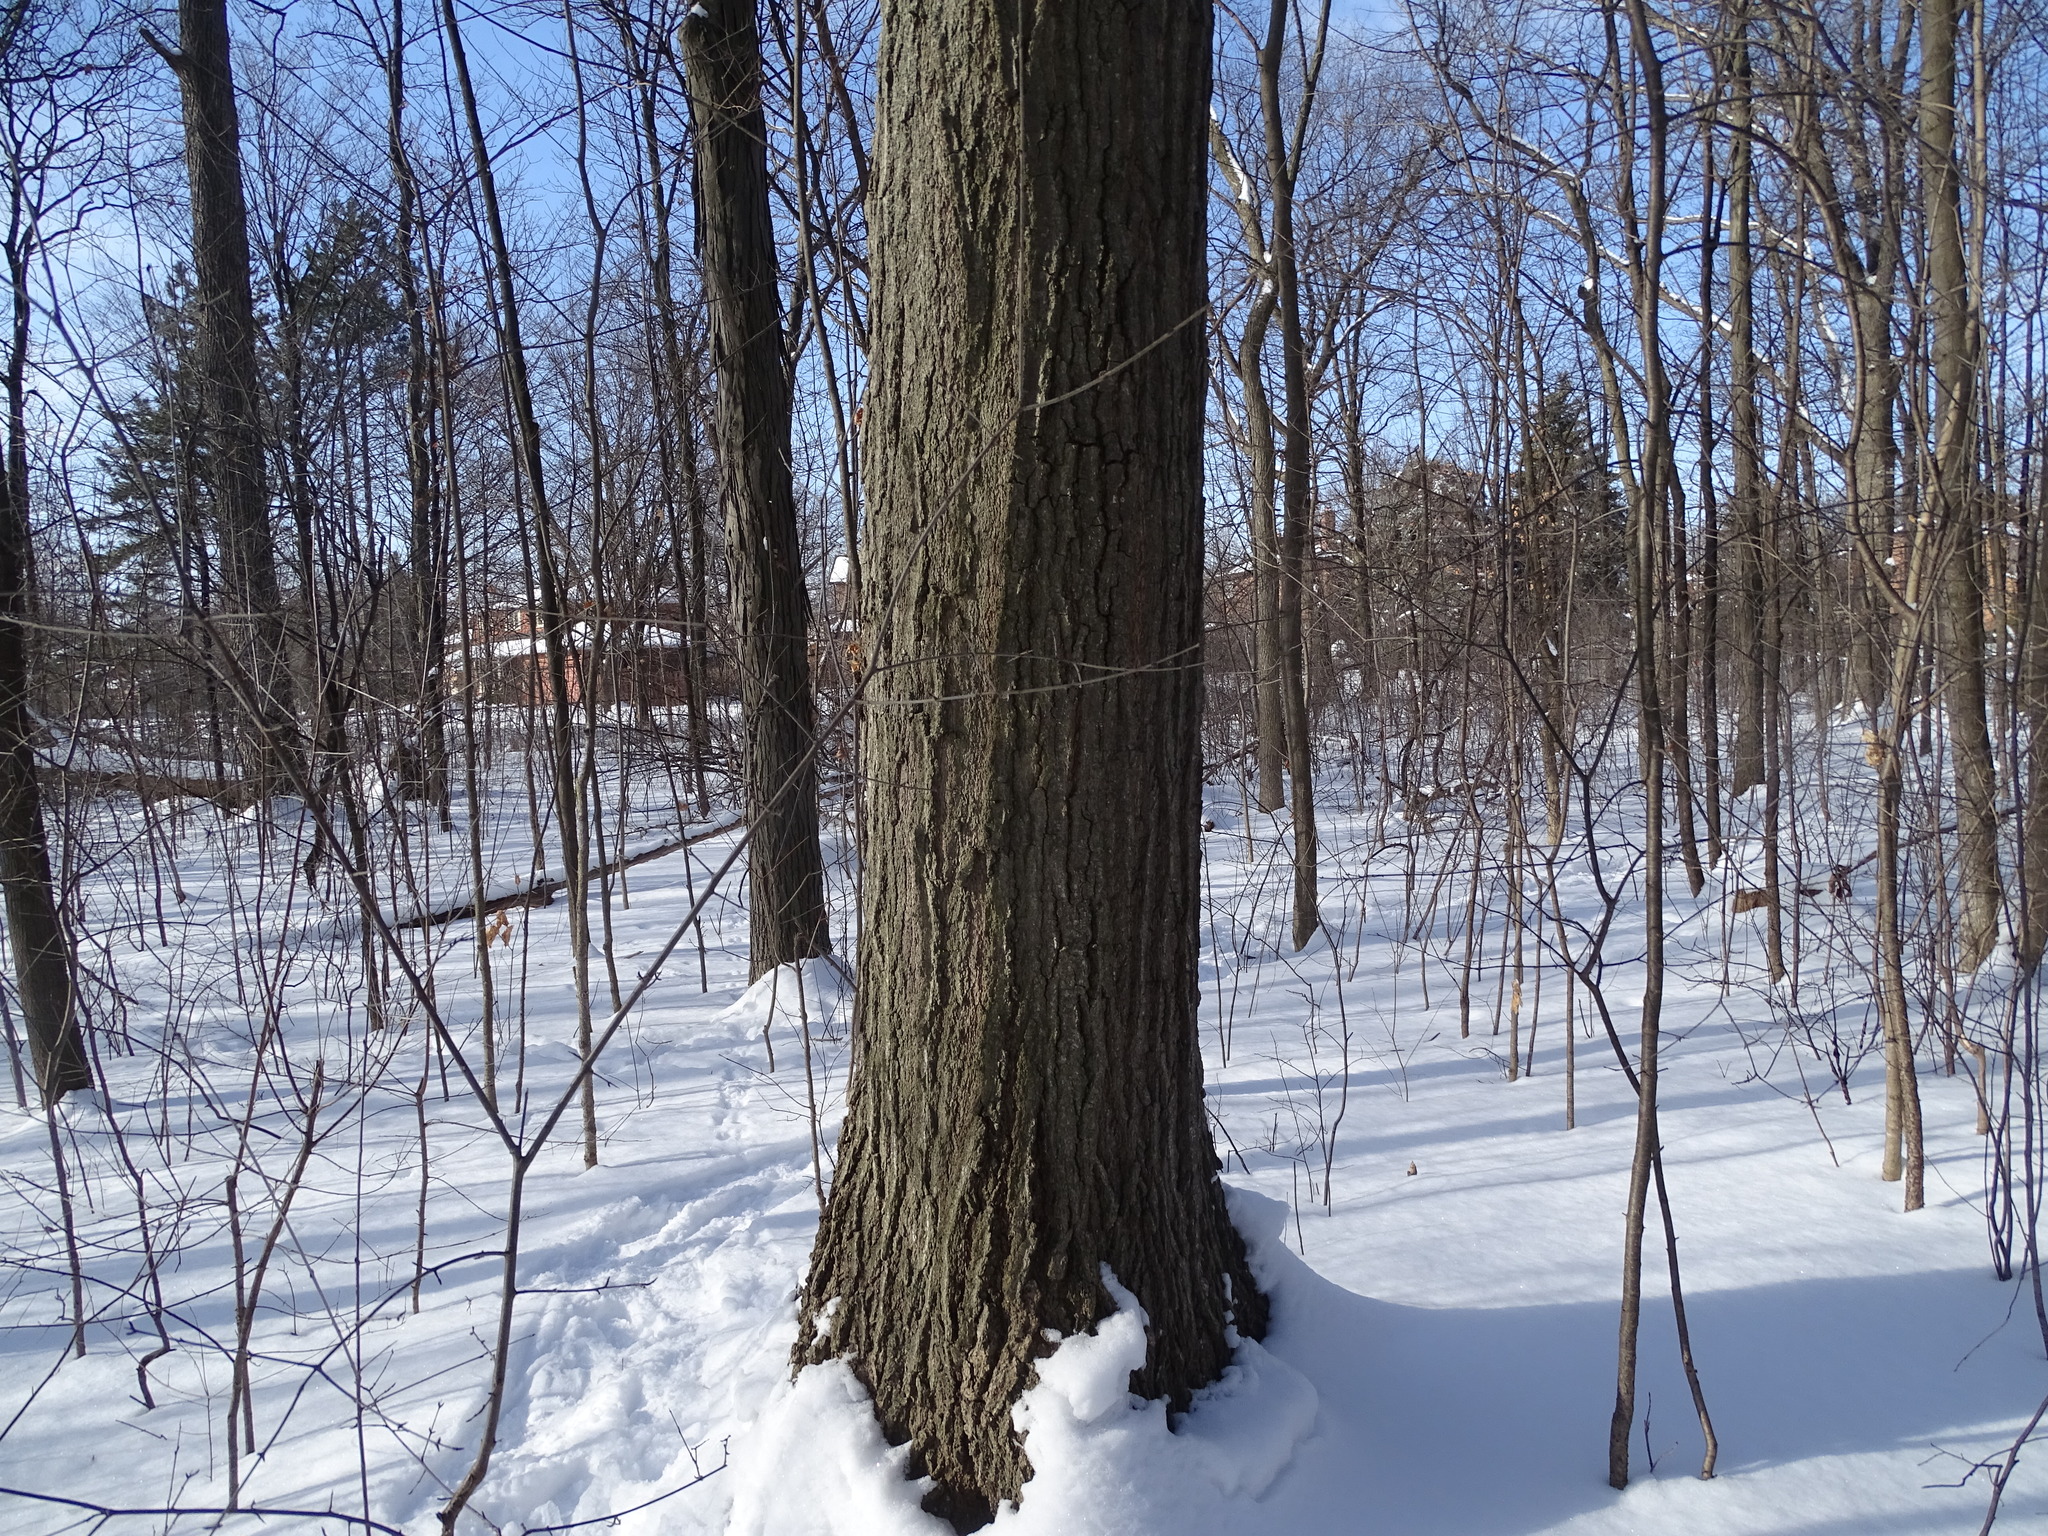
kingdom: Plantae
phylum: Tracheophyta
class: Magnoliopsida
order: Fagales
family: Fagaceae
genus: Quercus
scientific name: Quercus rubra
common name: Red oak
